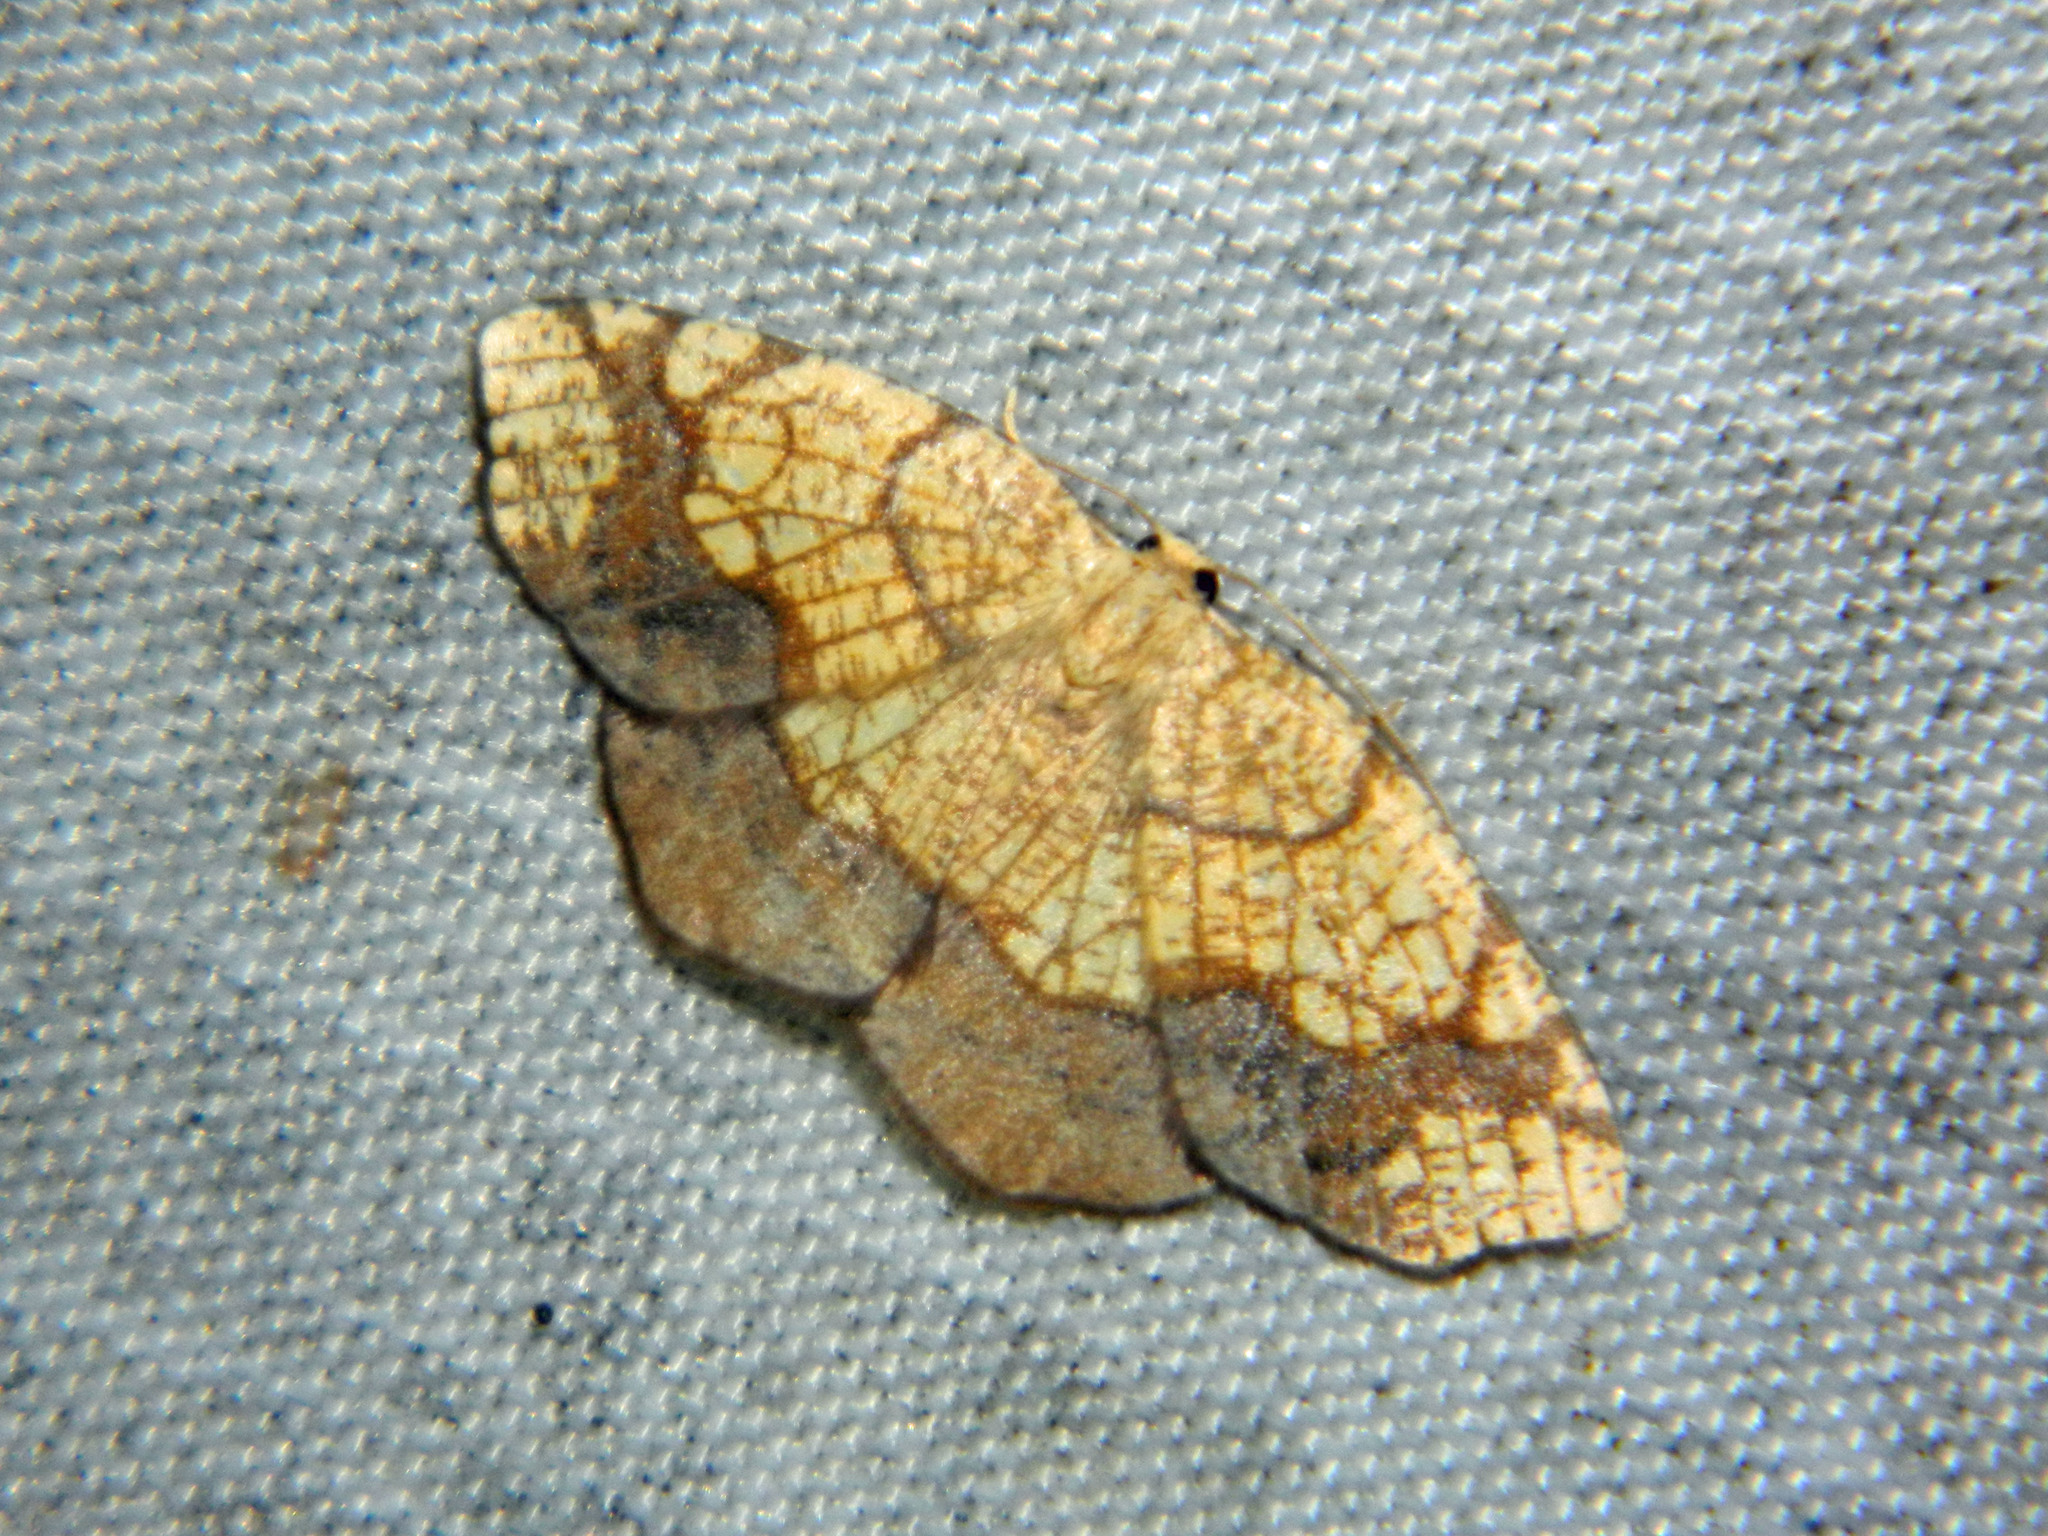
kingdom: Animalia
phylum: Arthropoda
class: Insecta
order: Lepidoptera
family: Geometridae
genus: Nematocampa
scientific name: Nematocampa resistaria
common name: Horned spanworm moth
